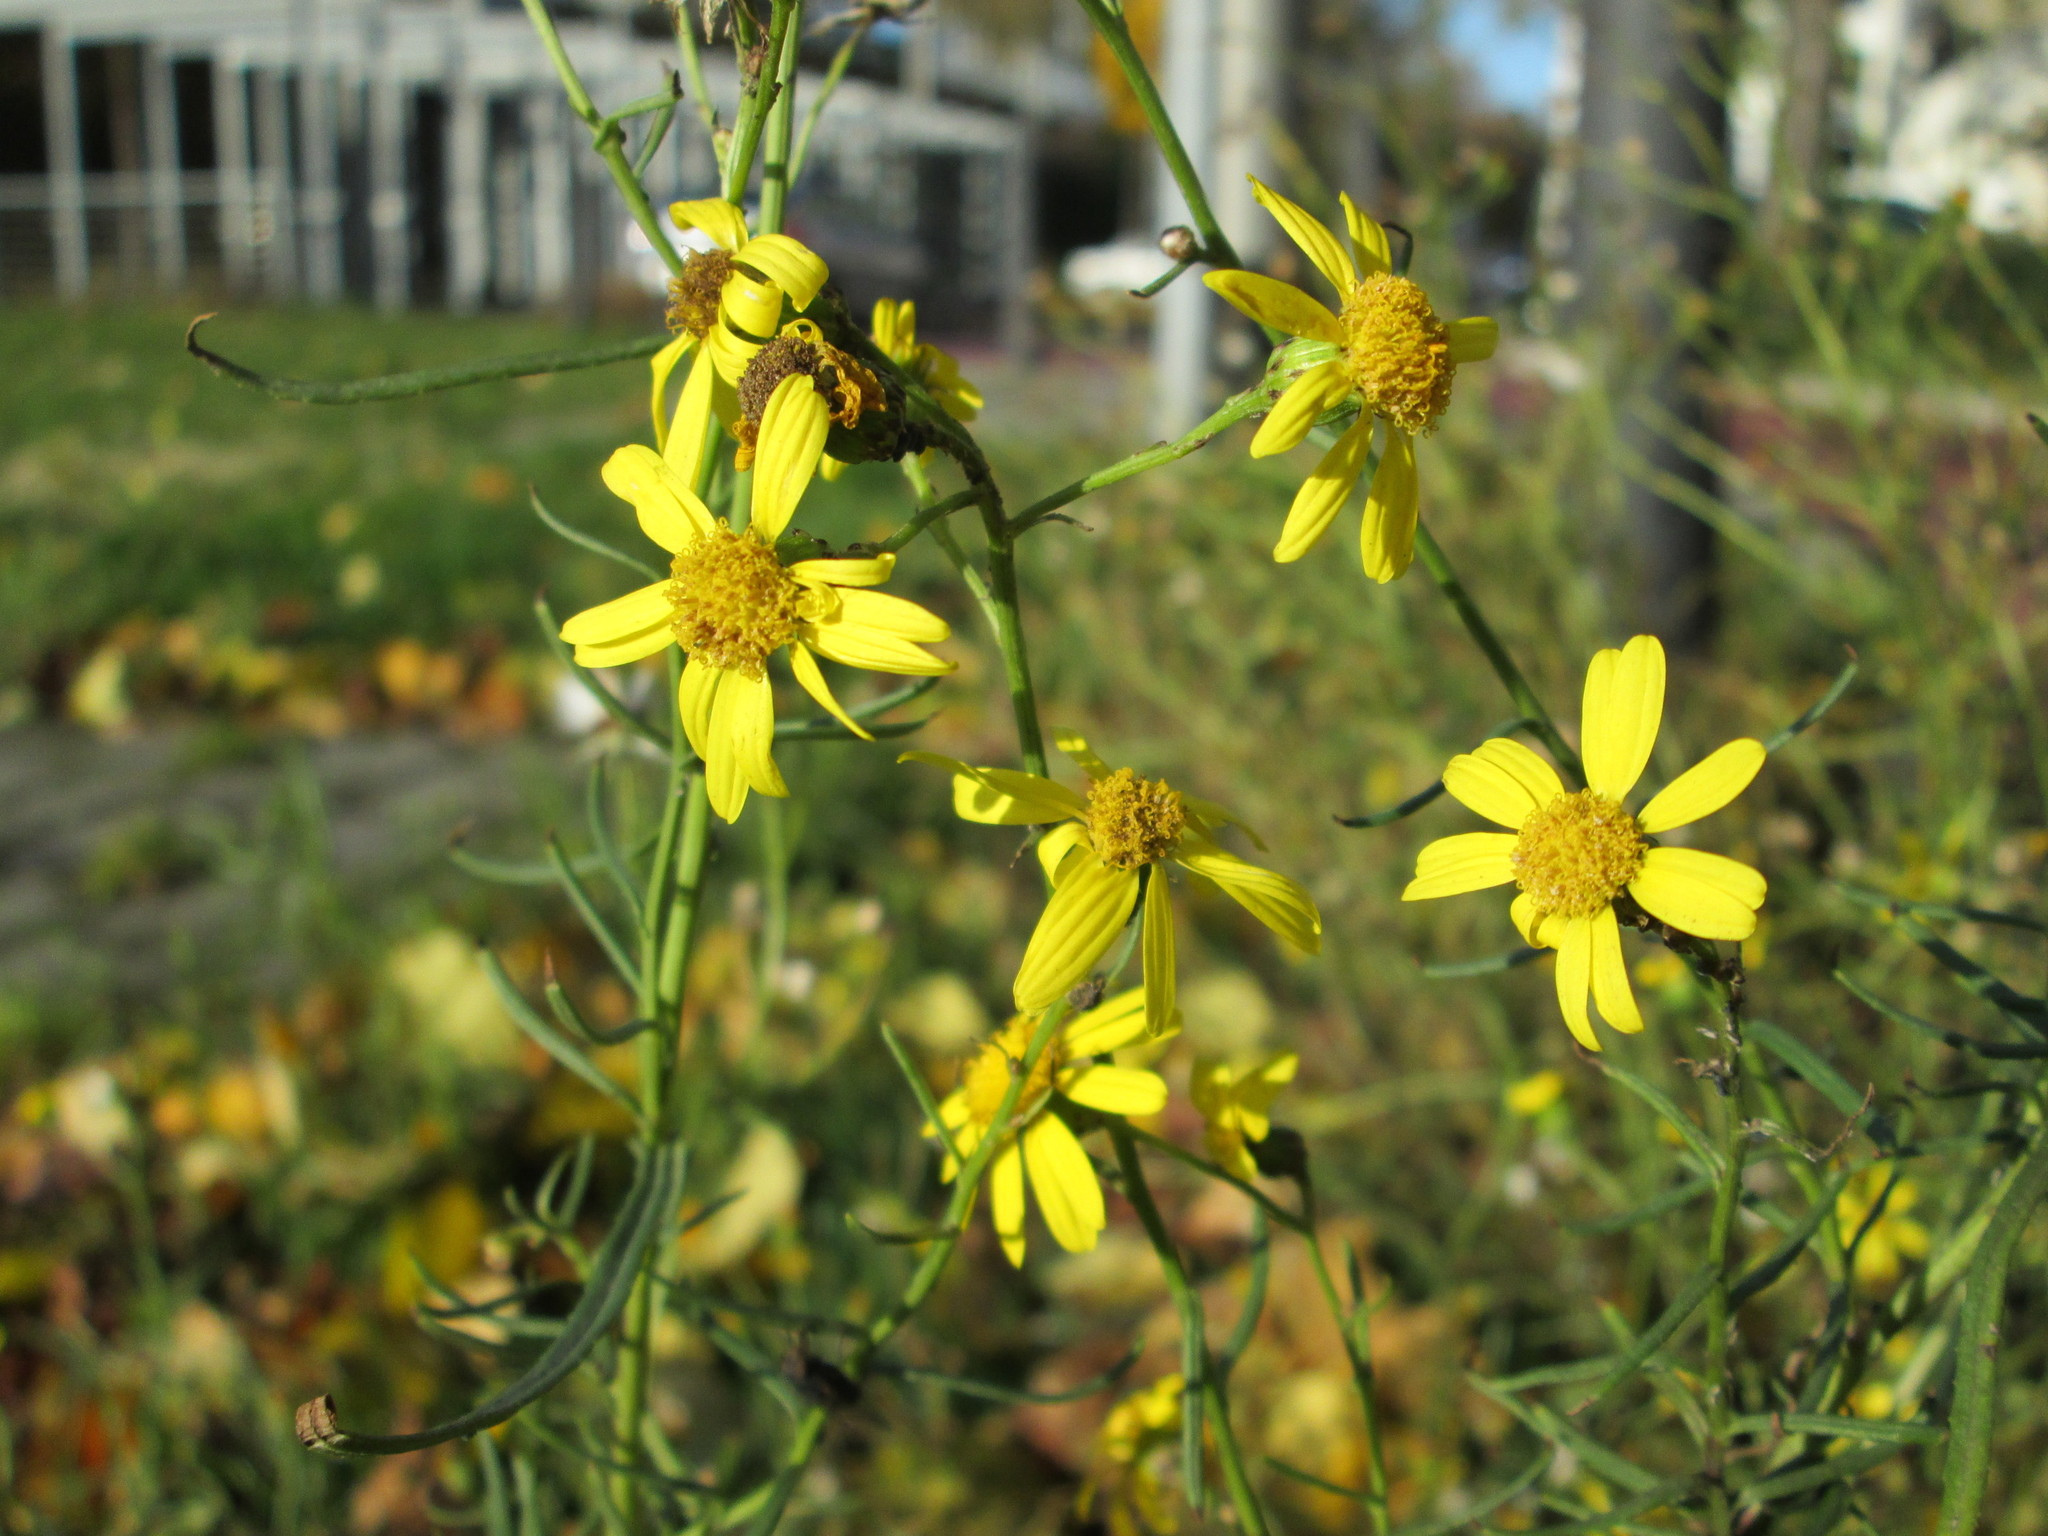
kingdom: Plantae
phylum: Tracheophyta
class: Magnoliopsida
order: Asterales
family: Asteraceae
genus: Senecio
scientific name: Senecio inaequidens
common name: Narrow-leaved ragwort
